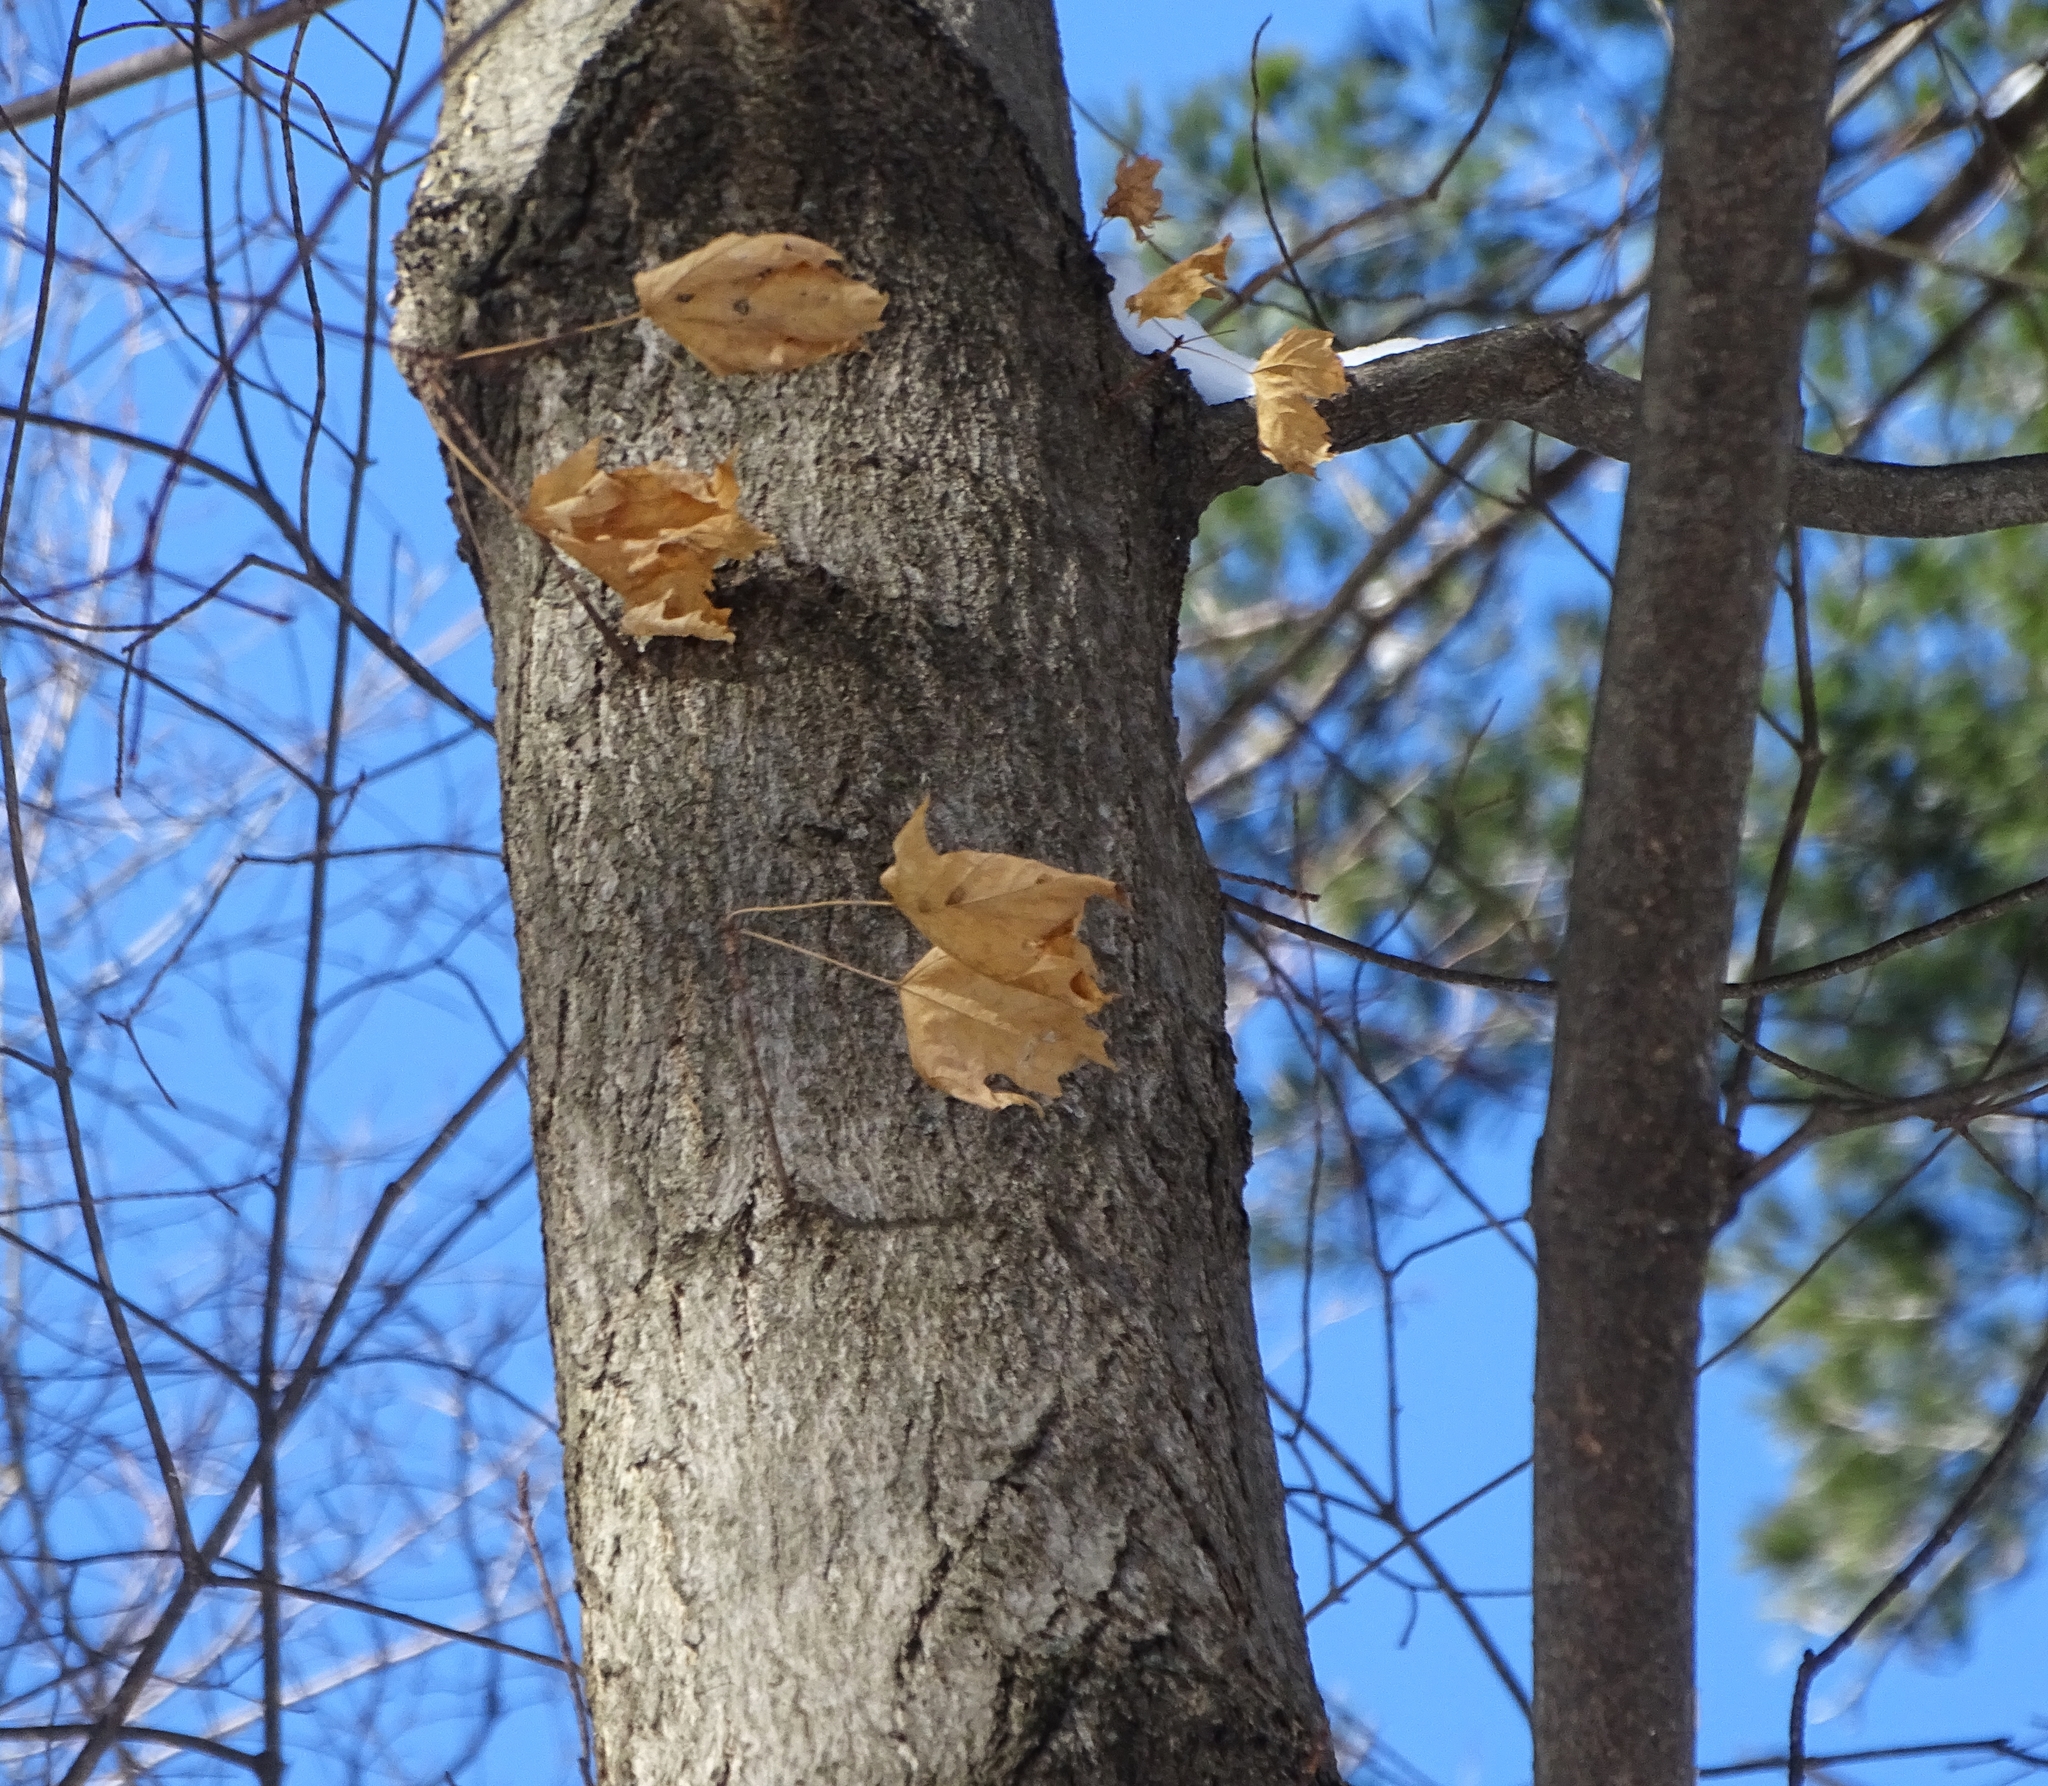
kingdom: Plantae
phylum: Tracheophyta
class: Magnoliopsida
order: Sapindales
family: Sapindaceae
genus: Acer
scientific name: Acer saccharum
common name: Sugar maple
